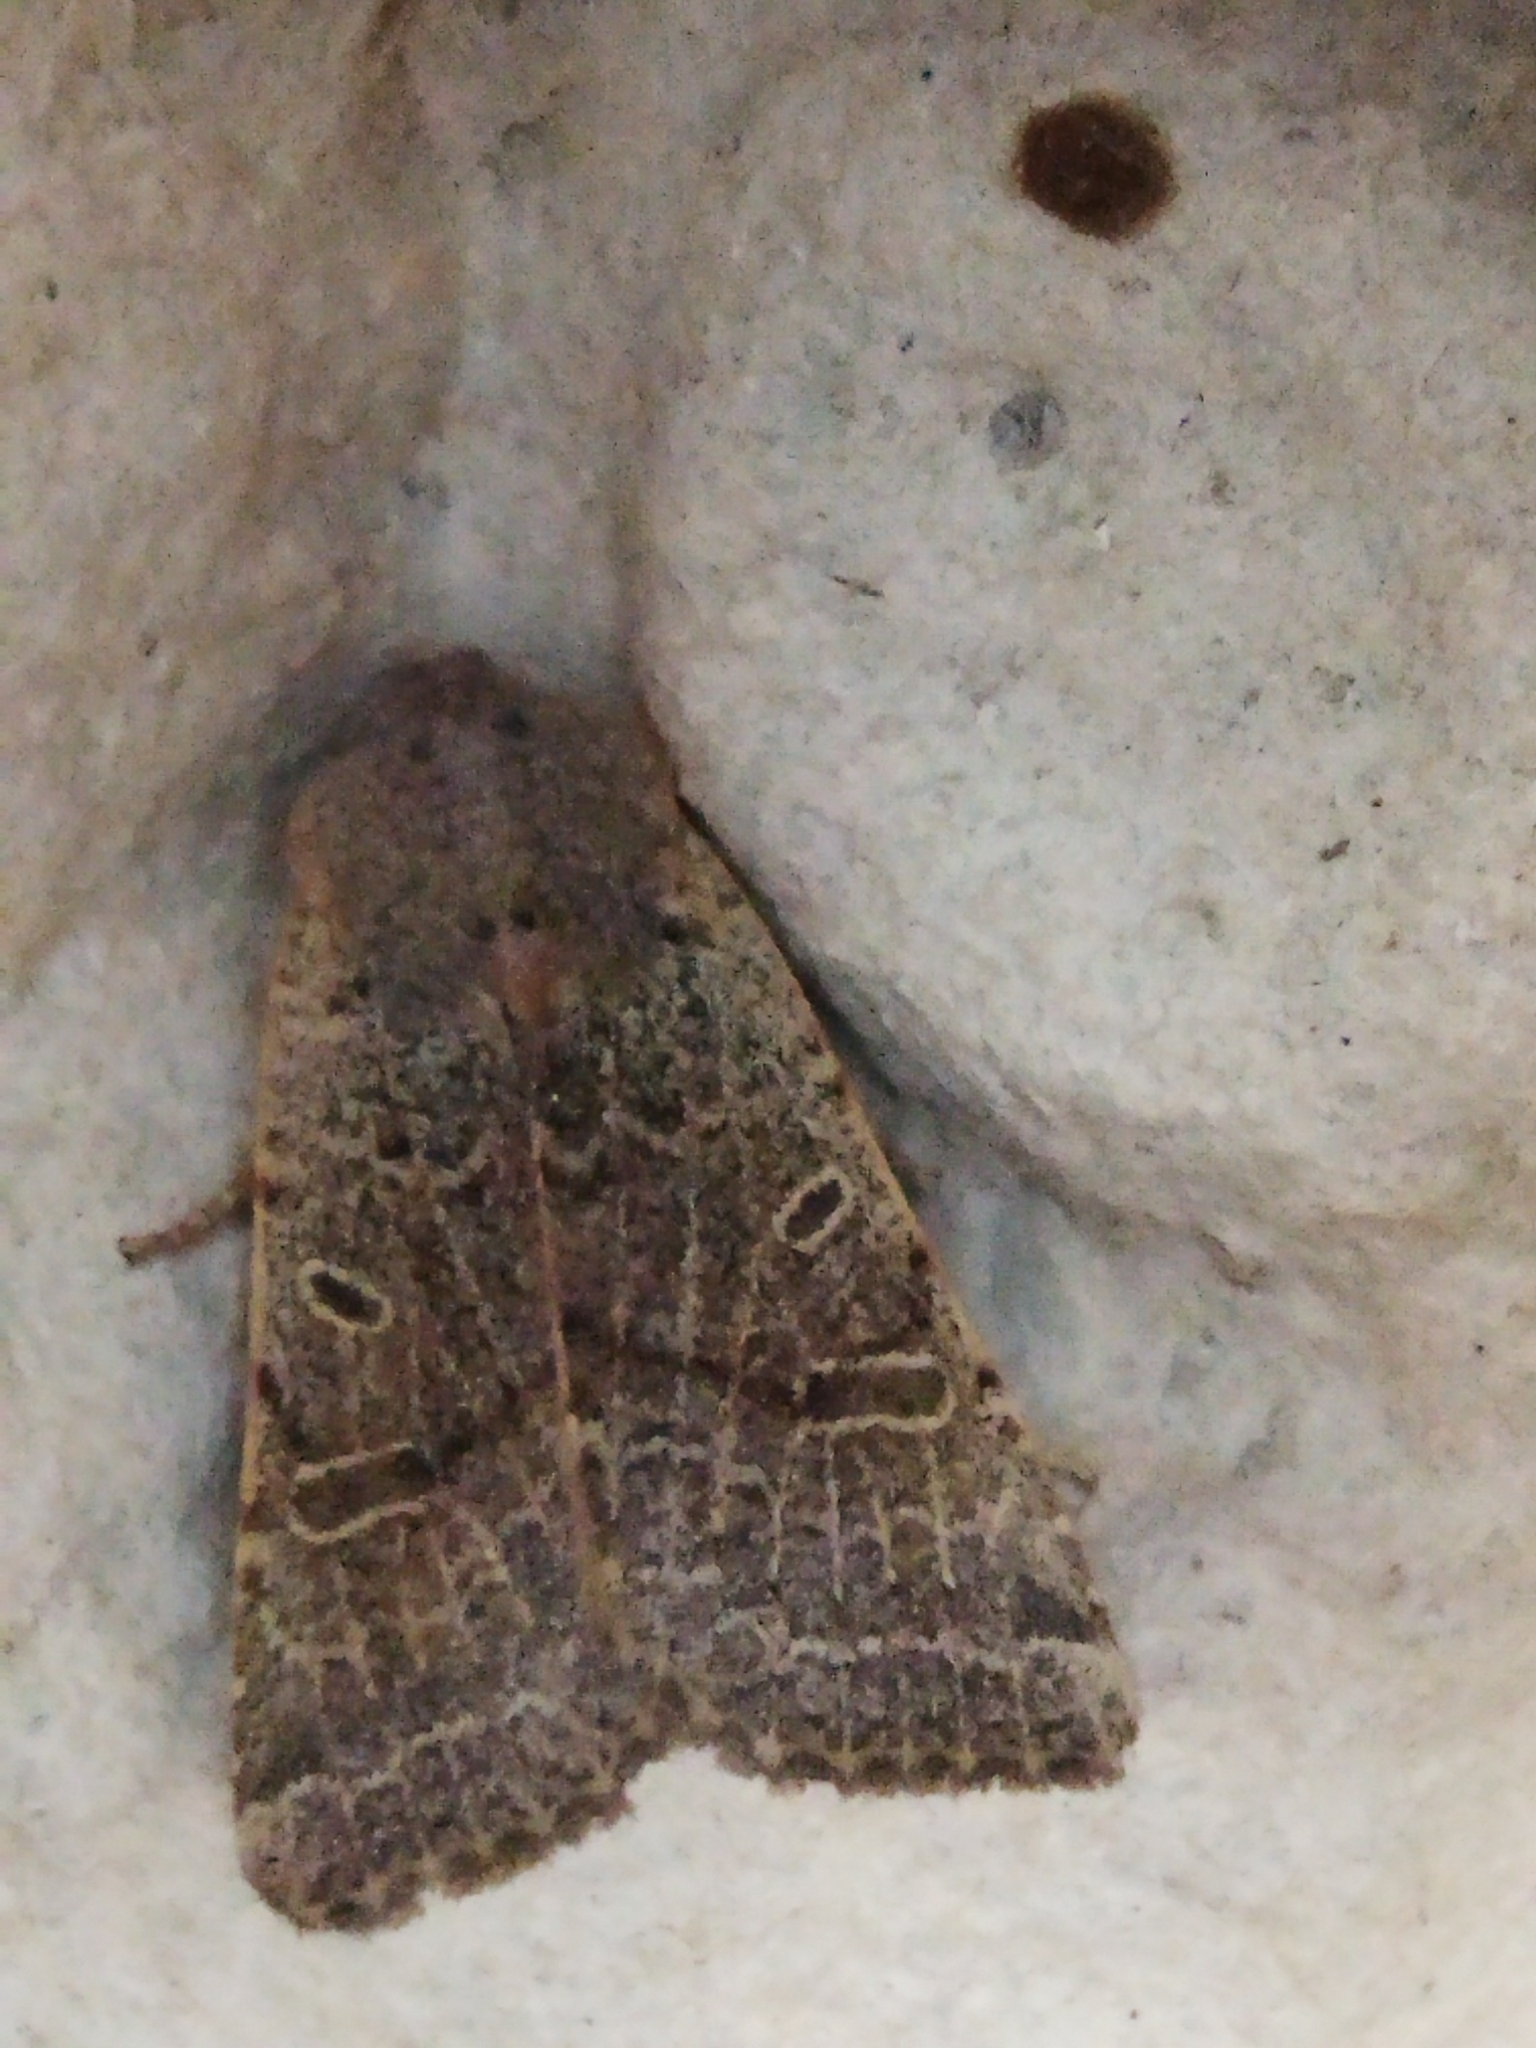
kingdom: Animalia
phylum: Arthropoda
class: Insecta
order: Lepidoptera
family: Noctuidae
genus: Agrochola
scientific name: Agrochola lychnidis
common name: Beaded chestnut
